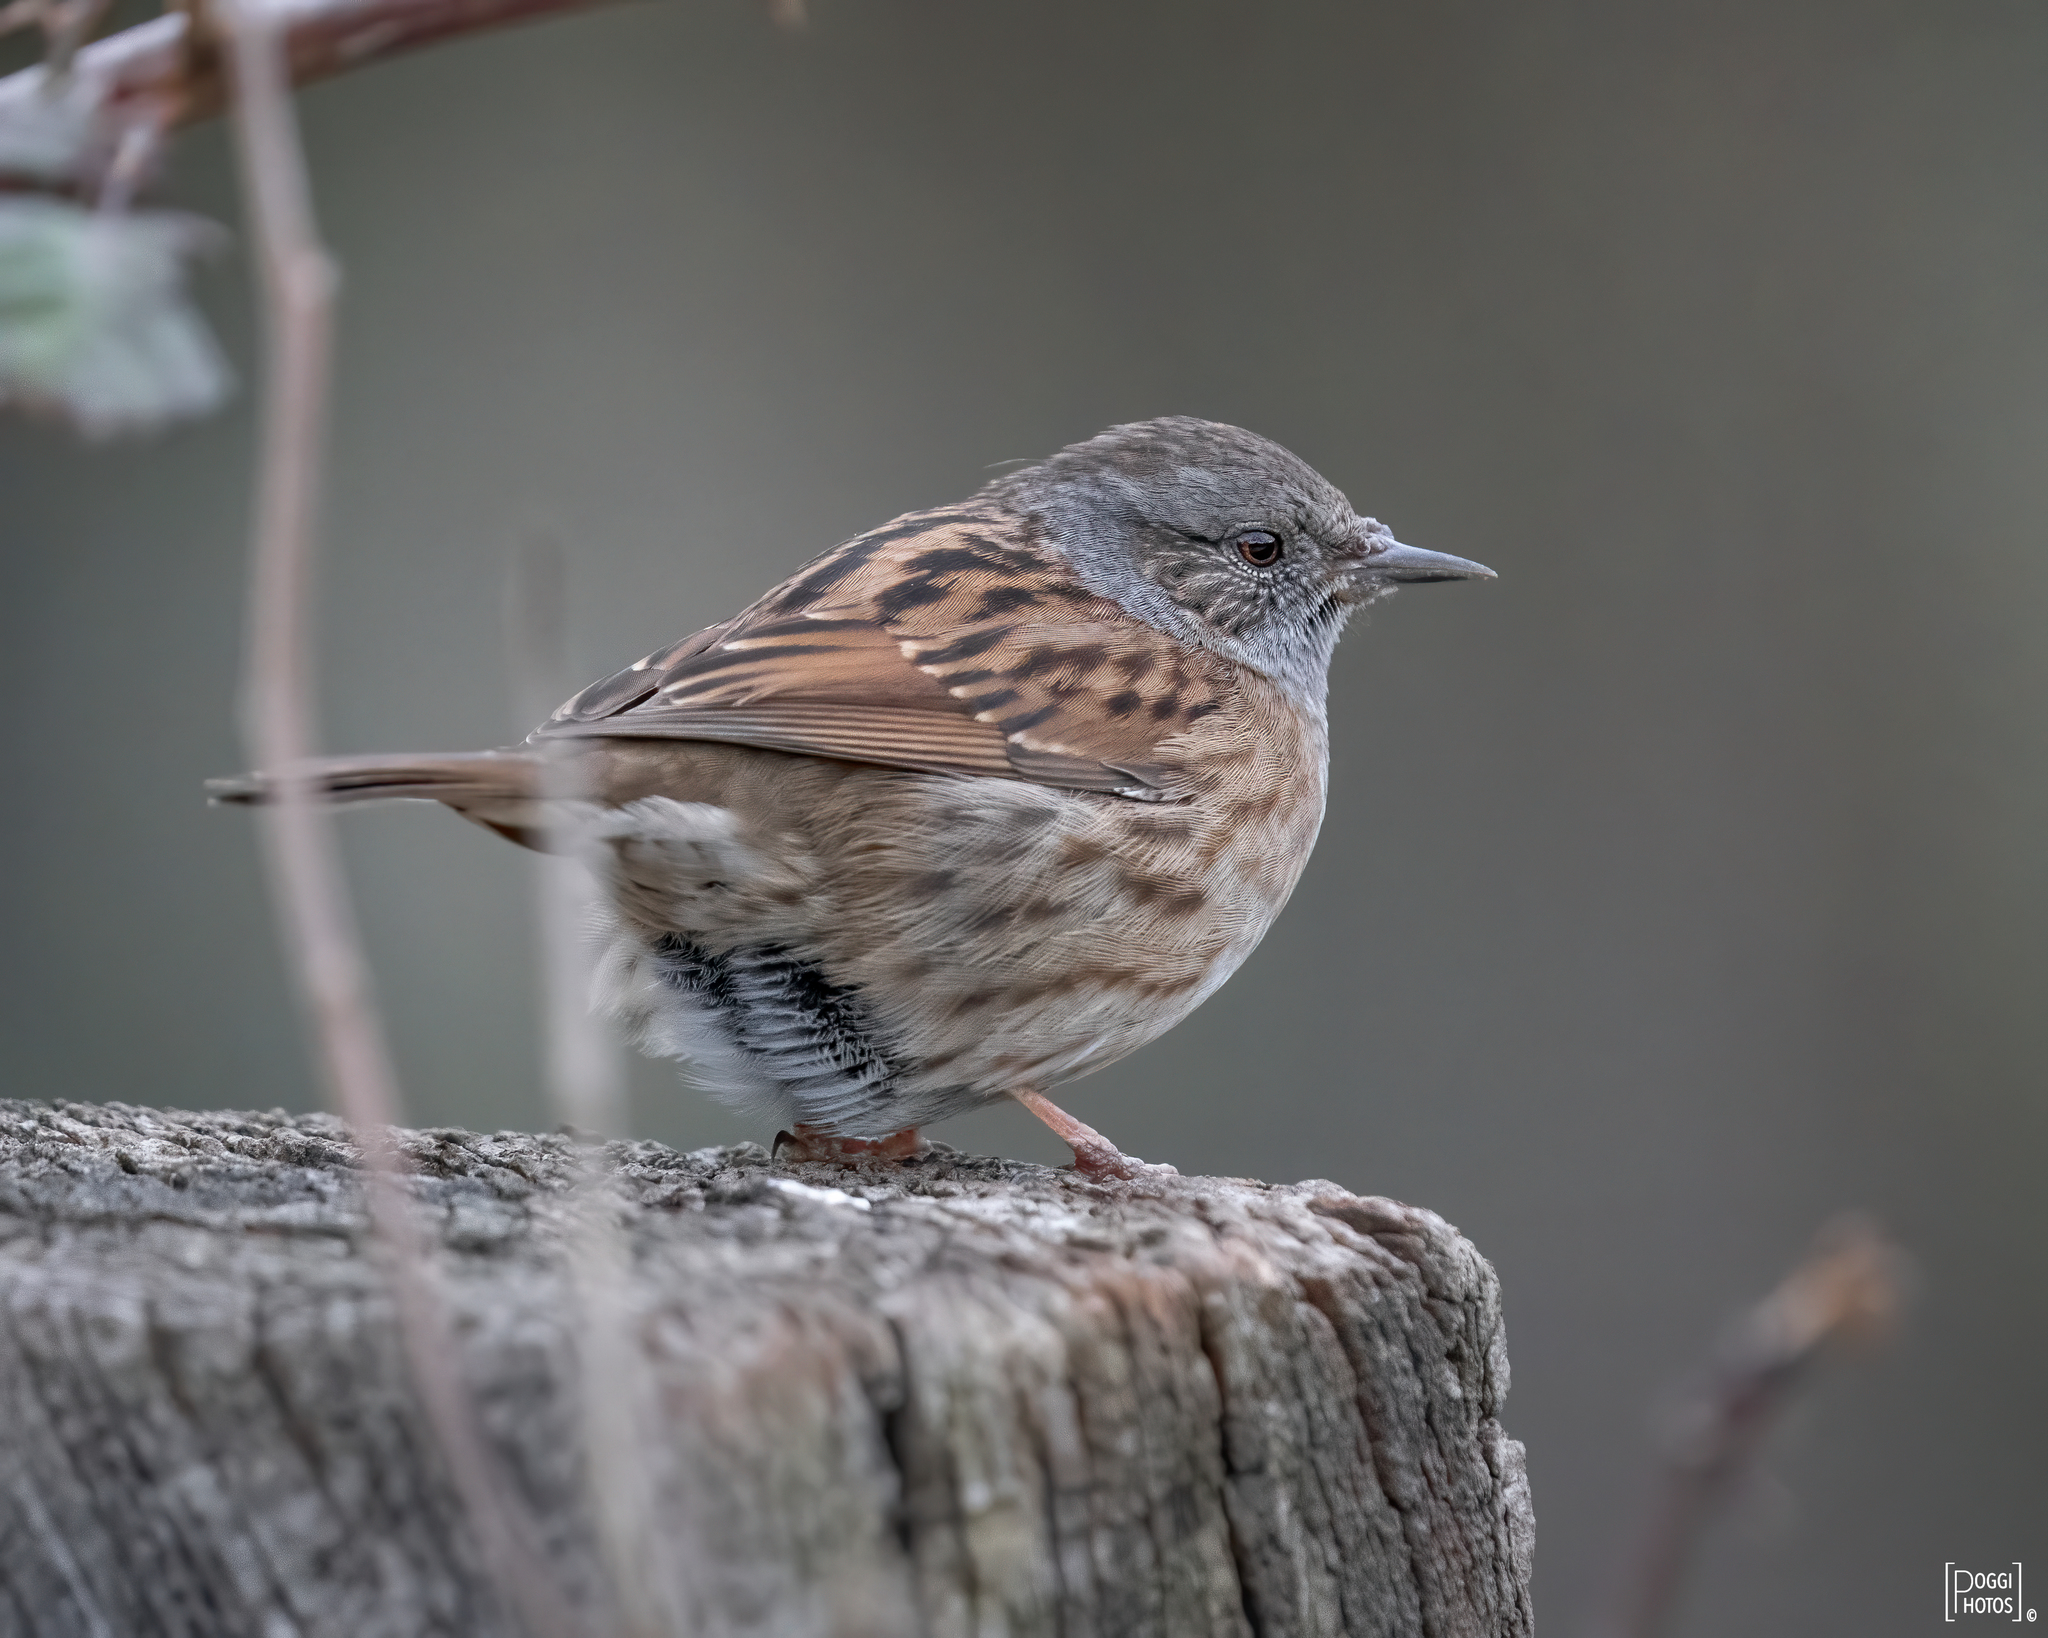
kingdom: Animalia
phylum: Chordata
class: Aves
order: Passeriformes
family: Prunellidae
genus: Prunella
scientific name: Prunella modularis
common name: Dunnock
